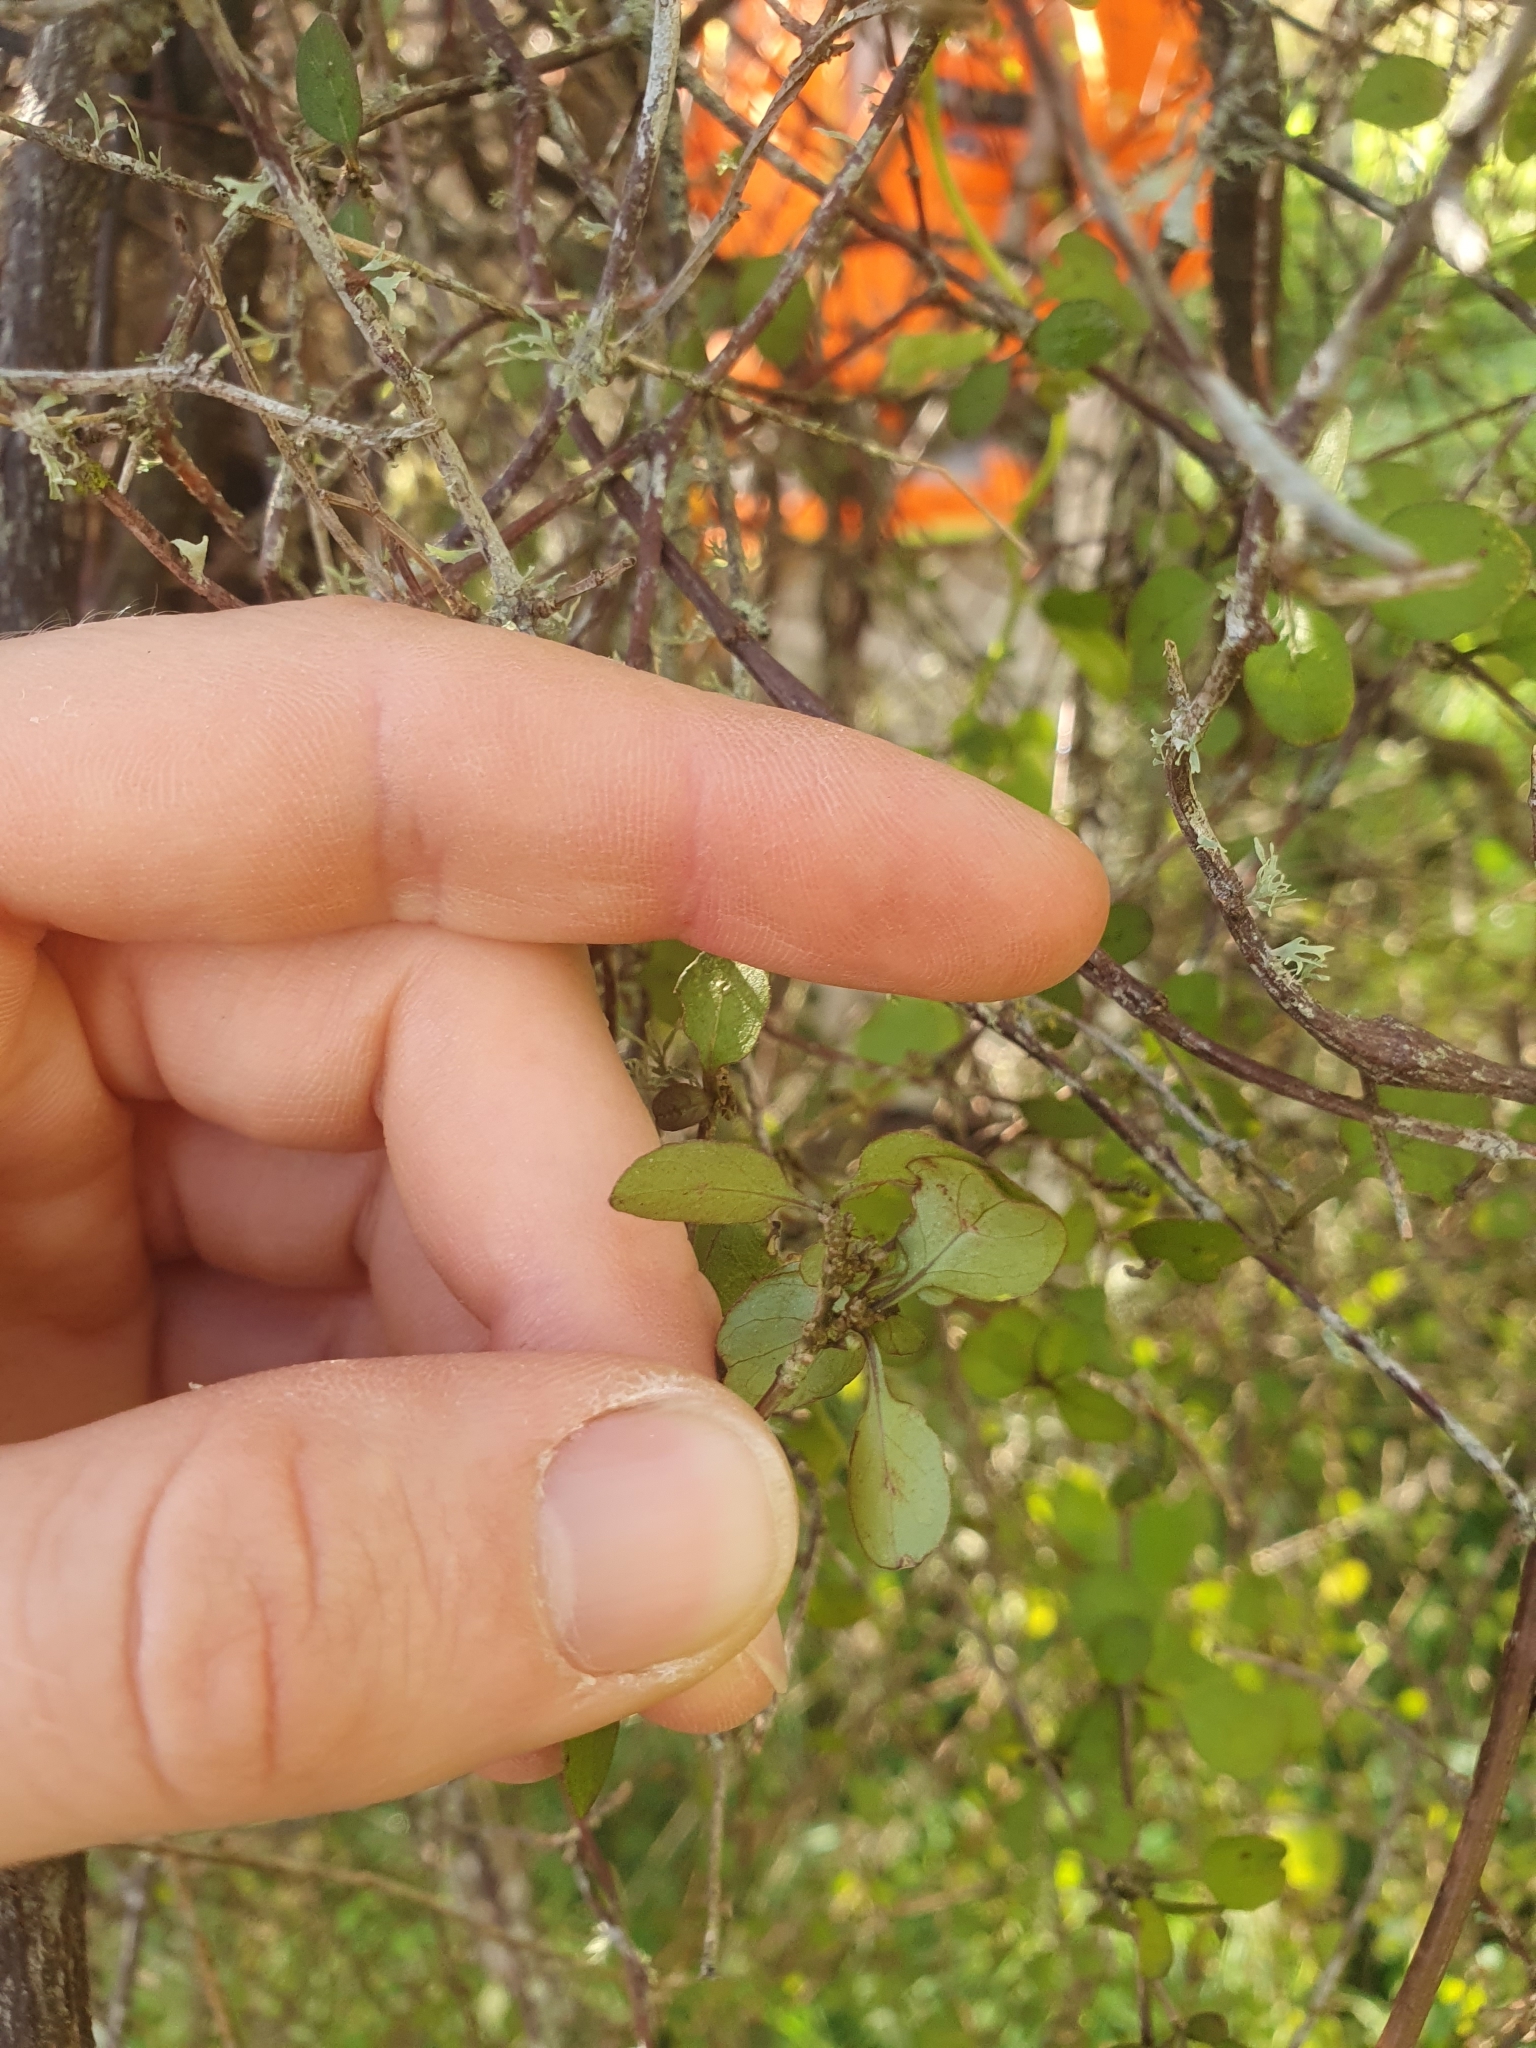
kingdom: Plantae
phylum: Tracheophyta
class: Magnoliopsida
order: Gentianales
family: Rubiaceae
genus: Coprosma
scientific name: Coprosma rubra
